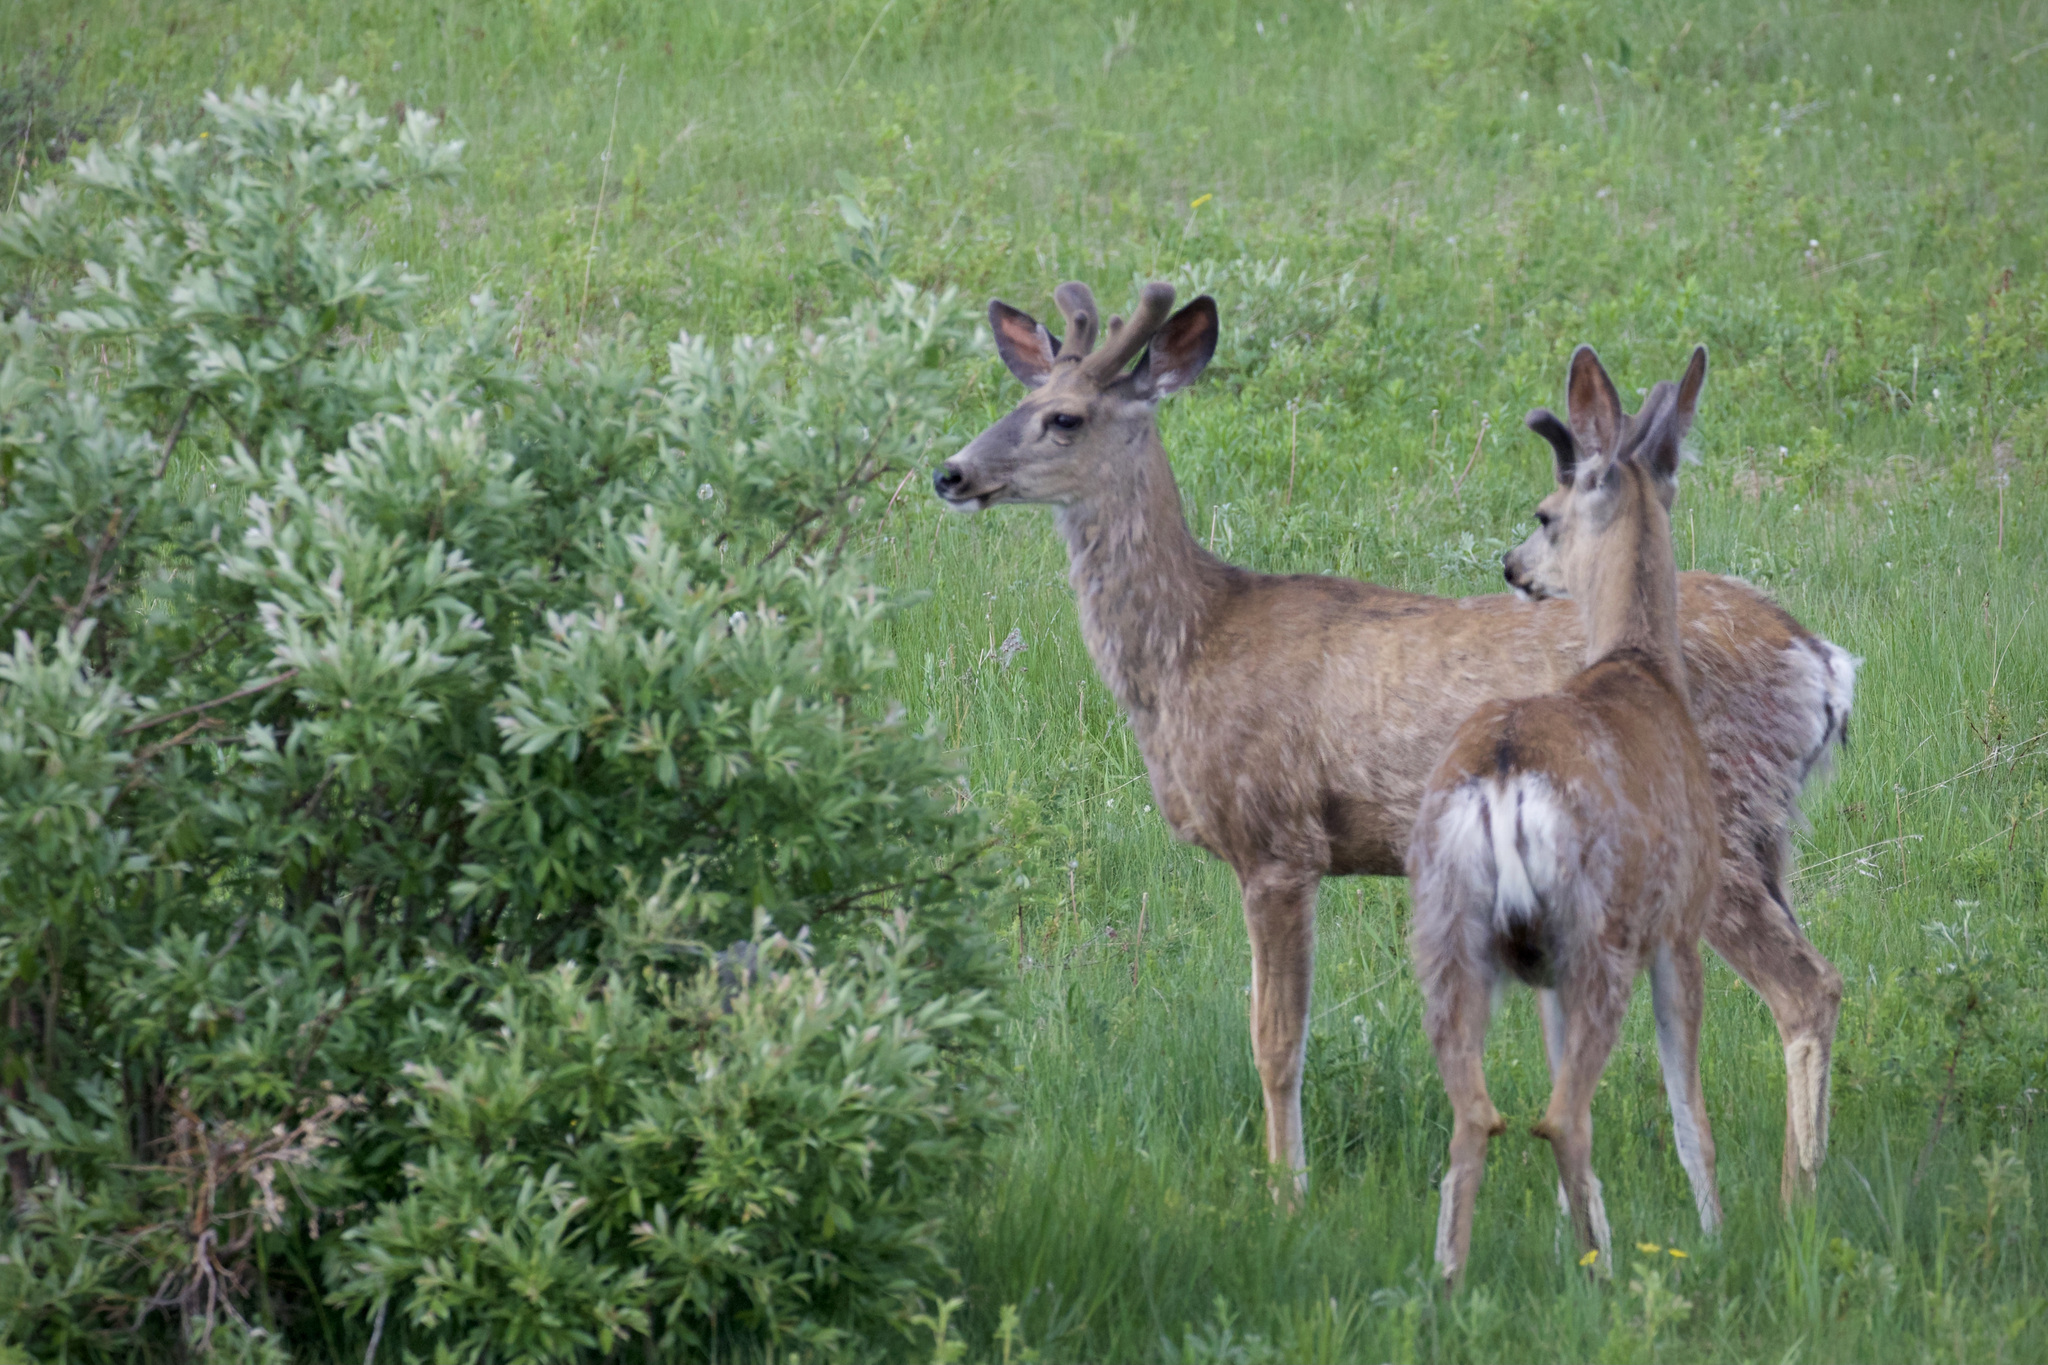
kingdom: Animalia
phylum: Chordata
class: Mammalia
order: Artiodactyla
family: Cervidae
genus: Odocoileus
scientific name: Odocoileus hemionus
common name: Mule deer
